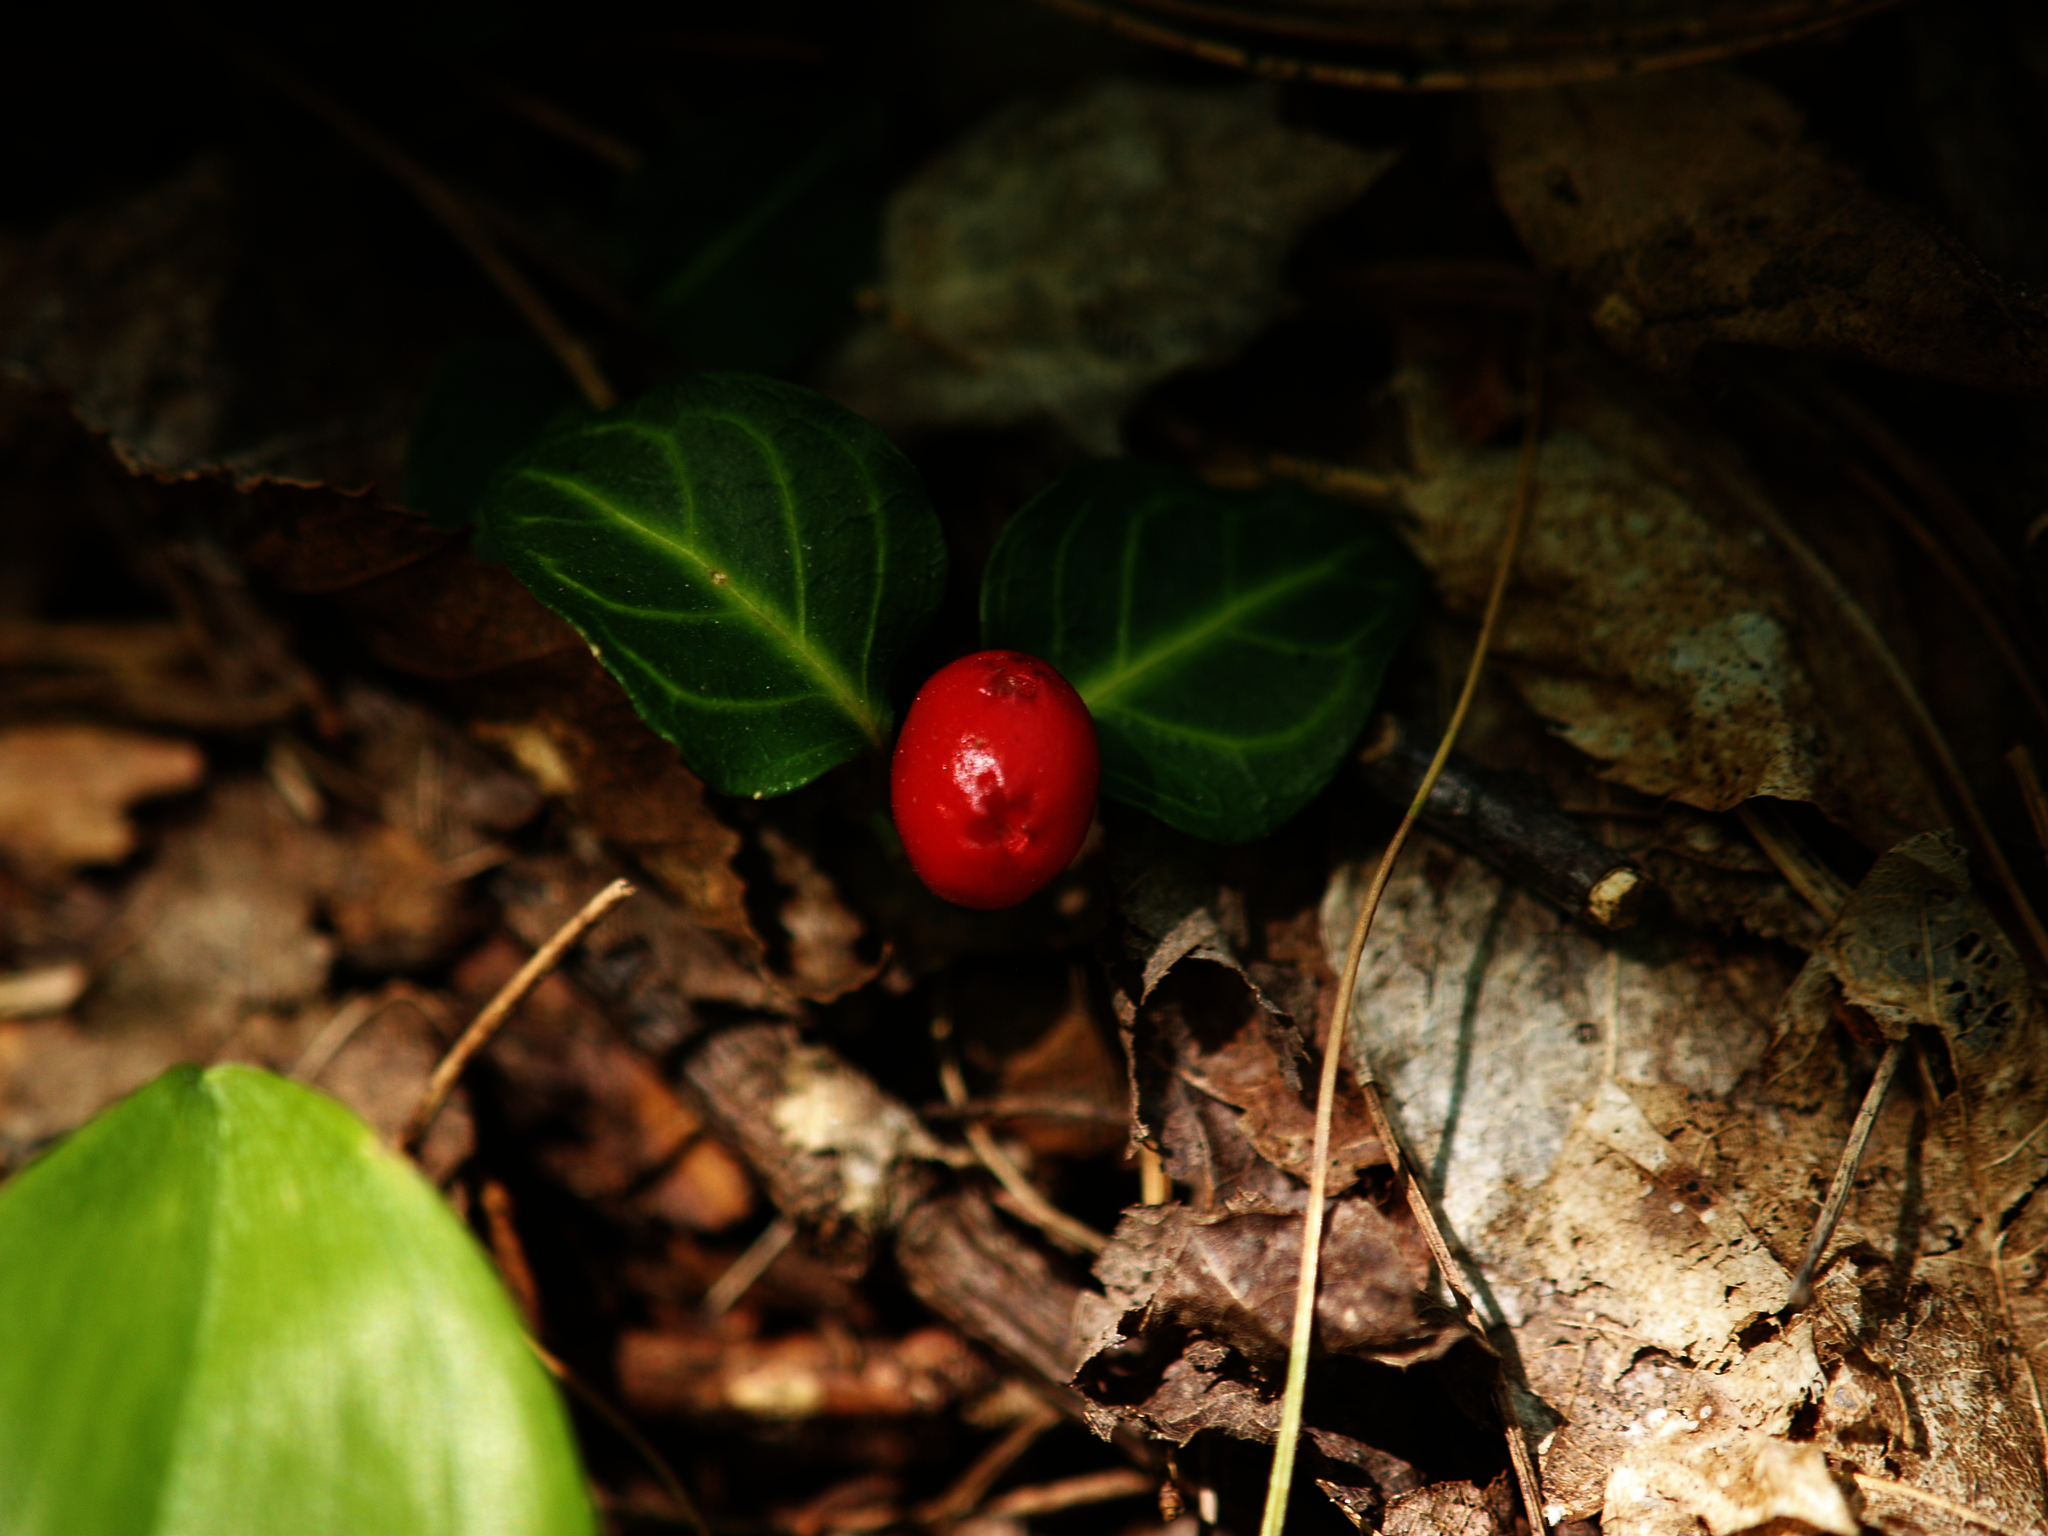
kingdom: Plantae
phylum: Tracheophyta
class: Magnoliopsida
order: Gentianales
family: Rubiaceae
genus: Mitchella
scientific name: Mitchella repens
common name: Partridge-berry
